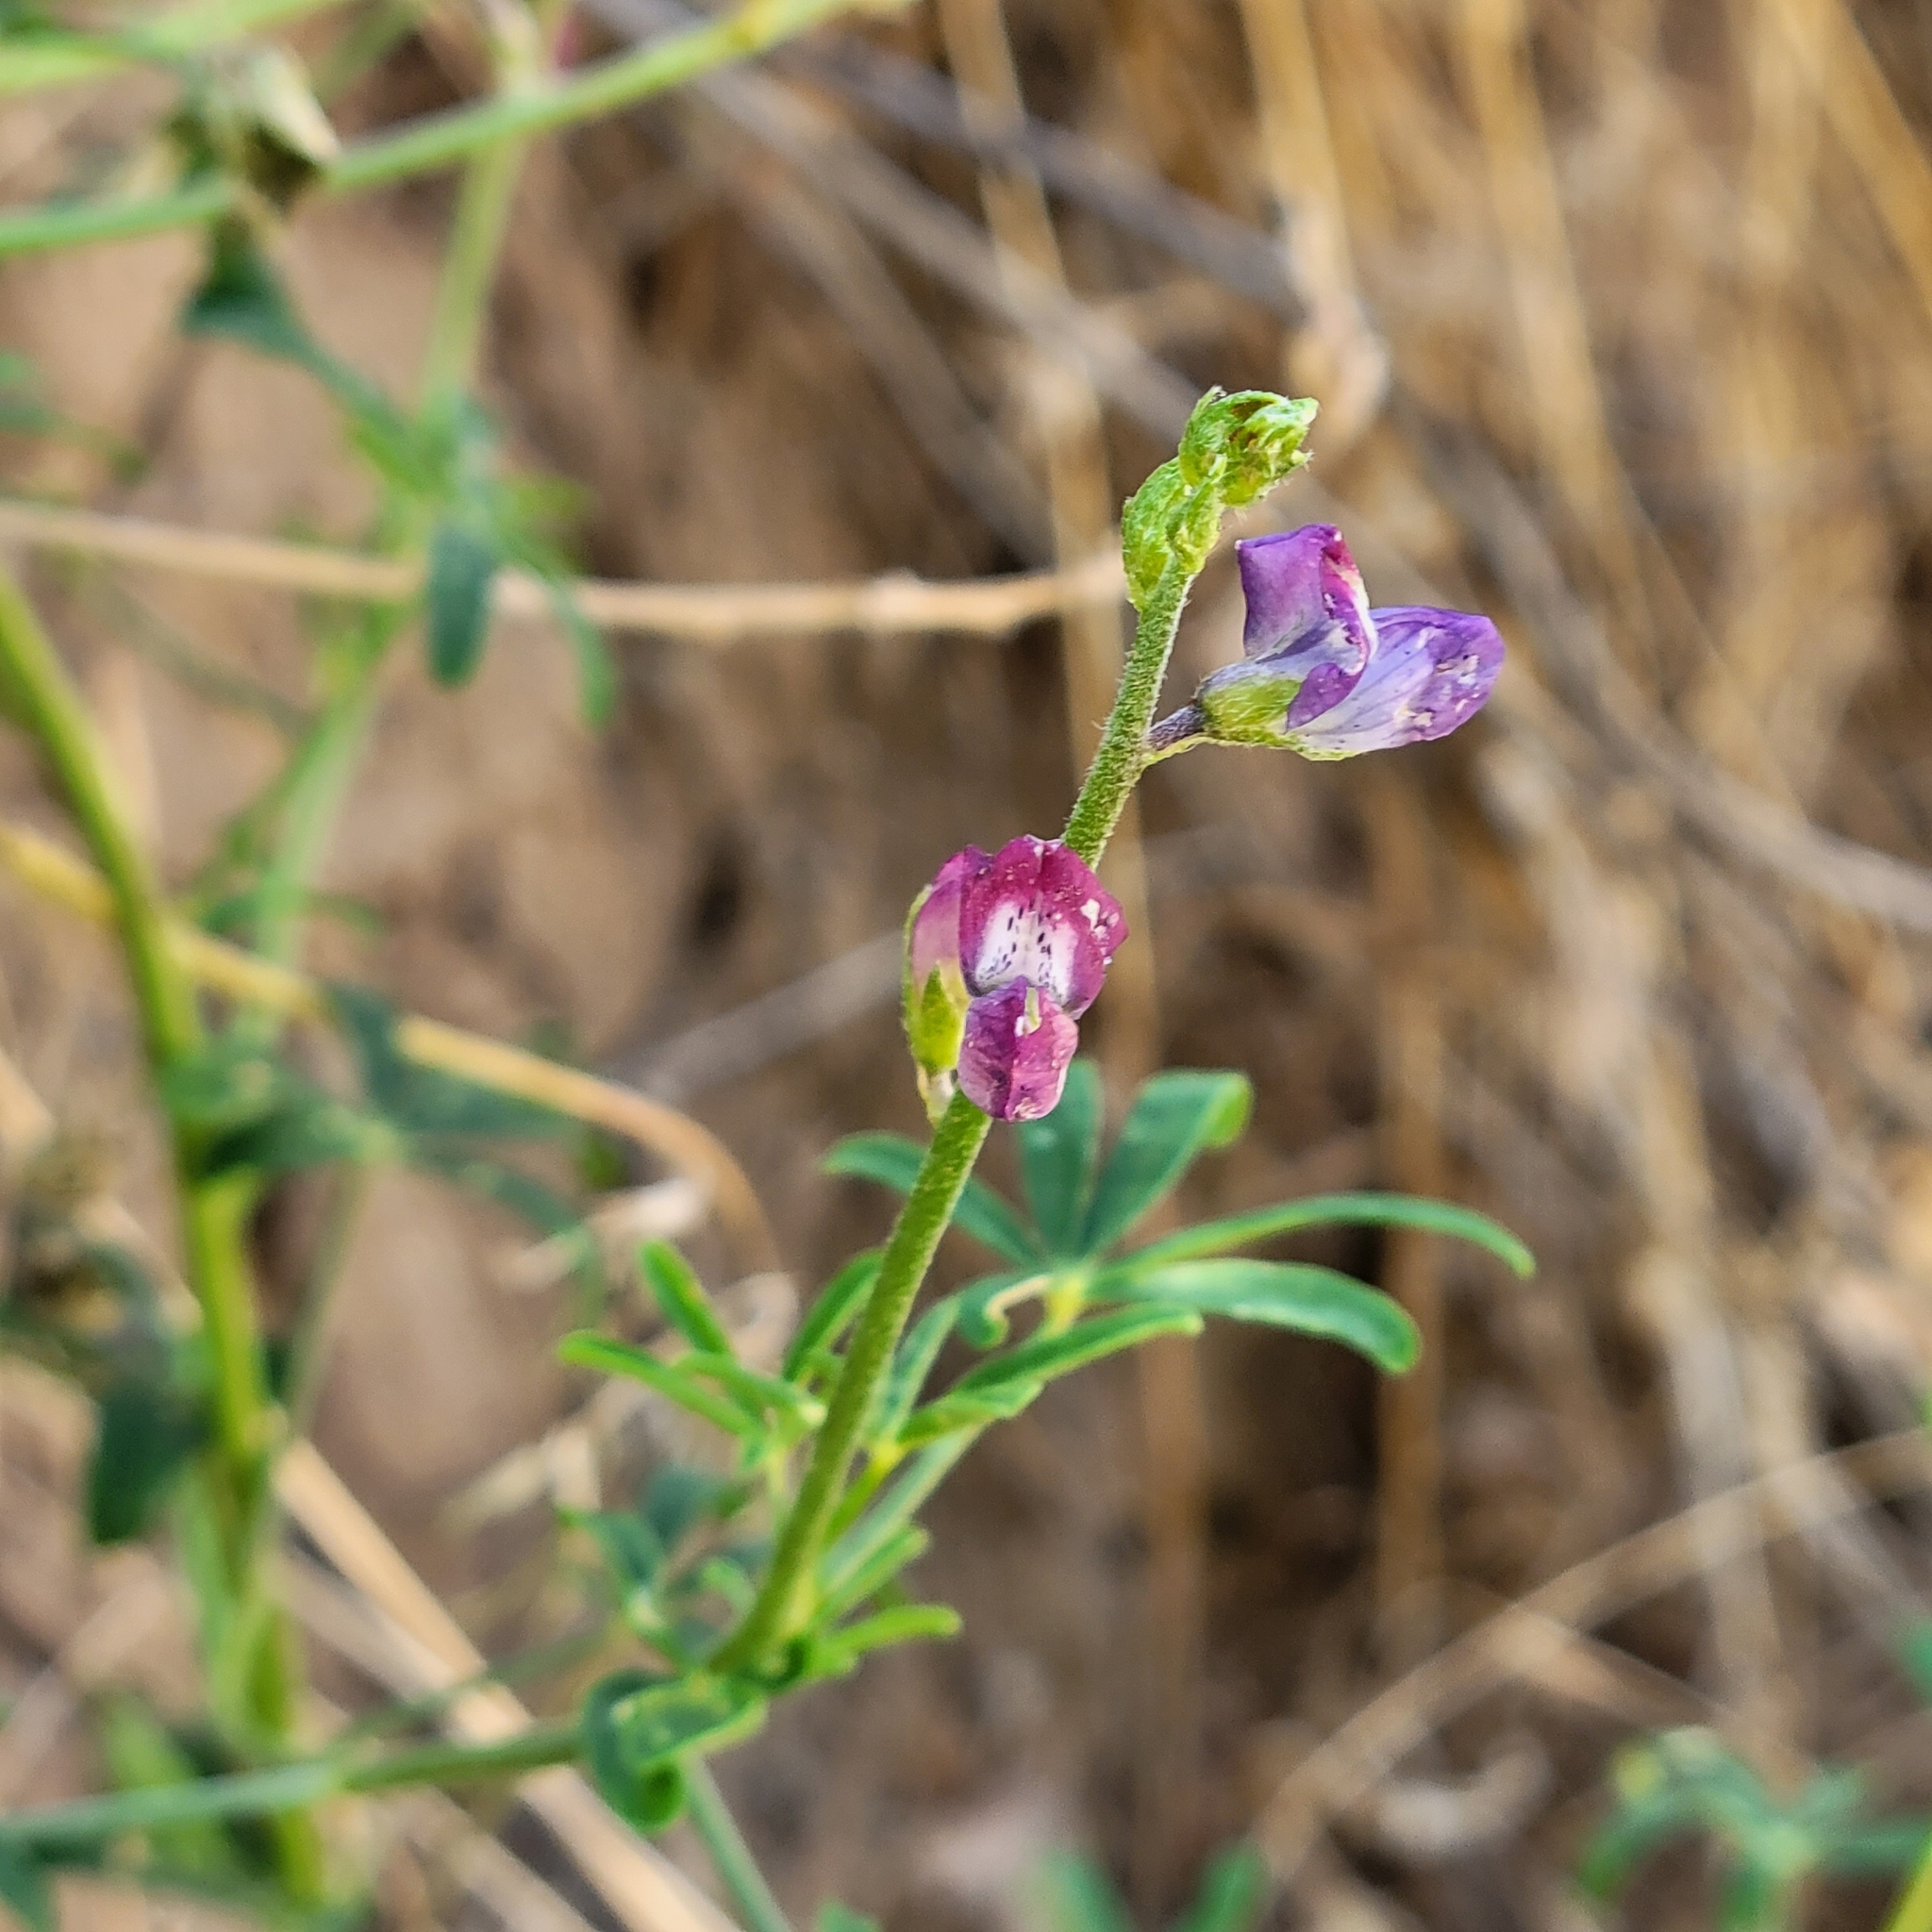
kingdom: Plantae
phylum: Tracheophyta
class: Magnoliopsida
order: Fabales
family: Fabaceae
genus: Lupinus
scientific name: Lupinus truncatus
